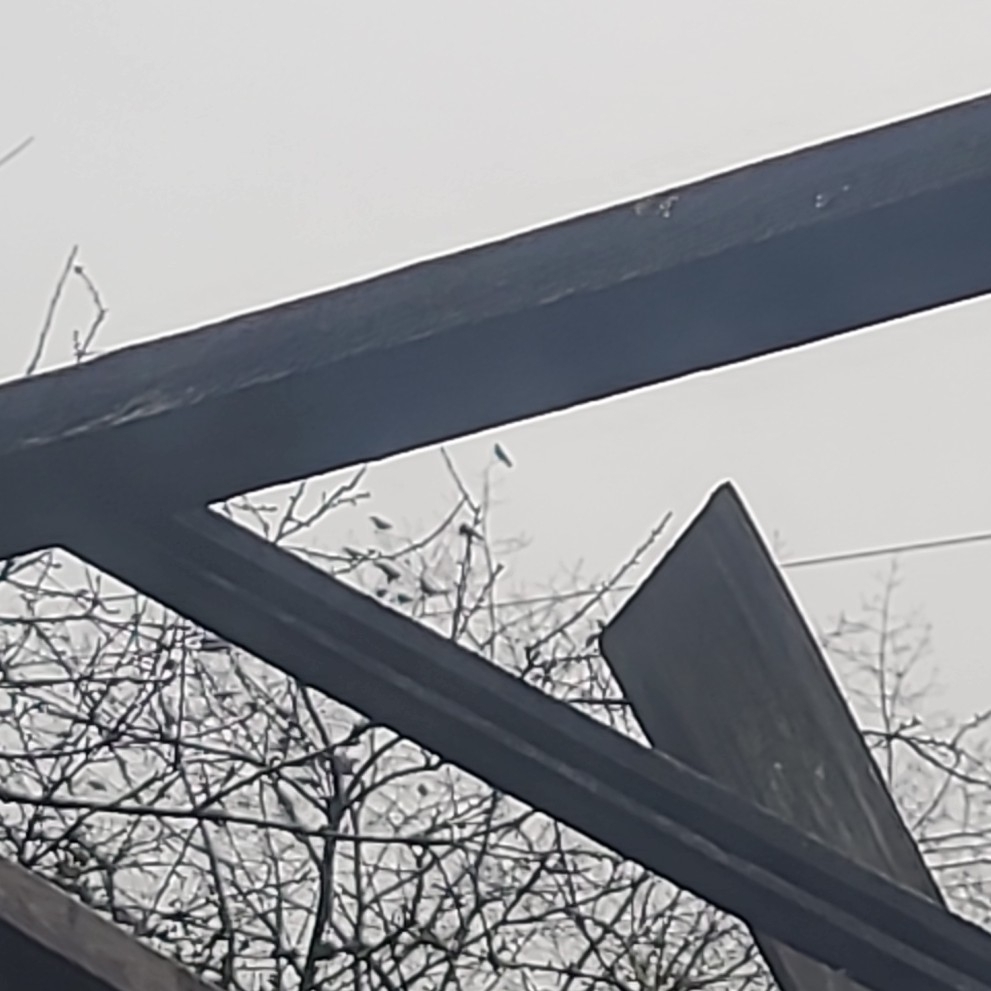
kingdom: Animalia
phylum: Chordata
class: Aves
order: Passeriformes
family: Corvidae
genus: Corvus
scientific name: Corvus brachyrhynchos
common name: American crow
